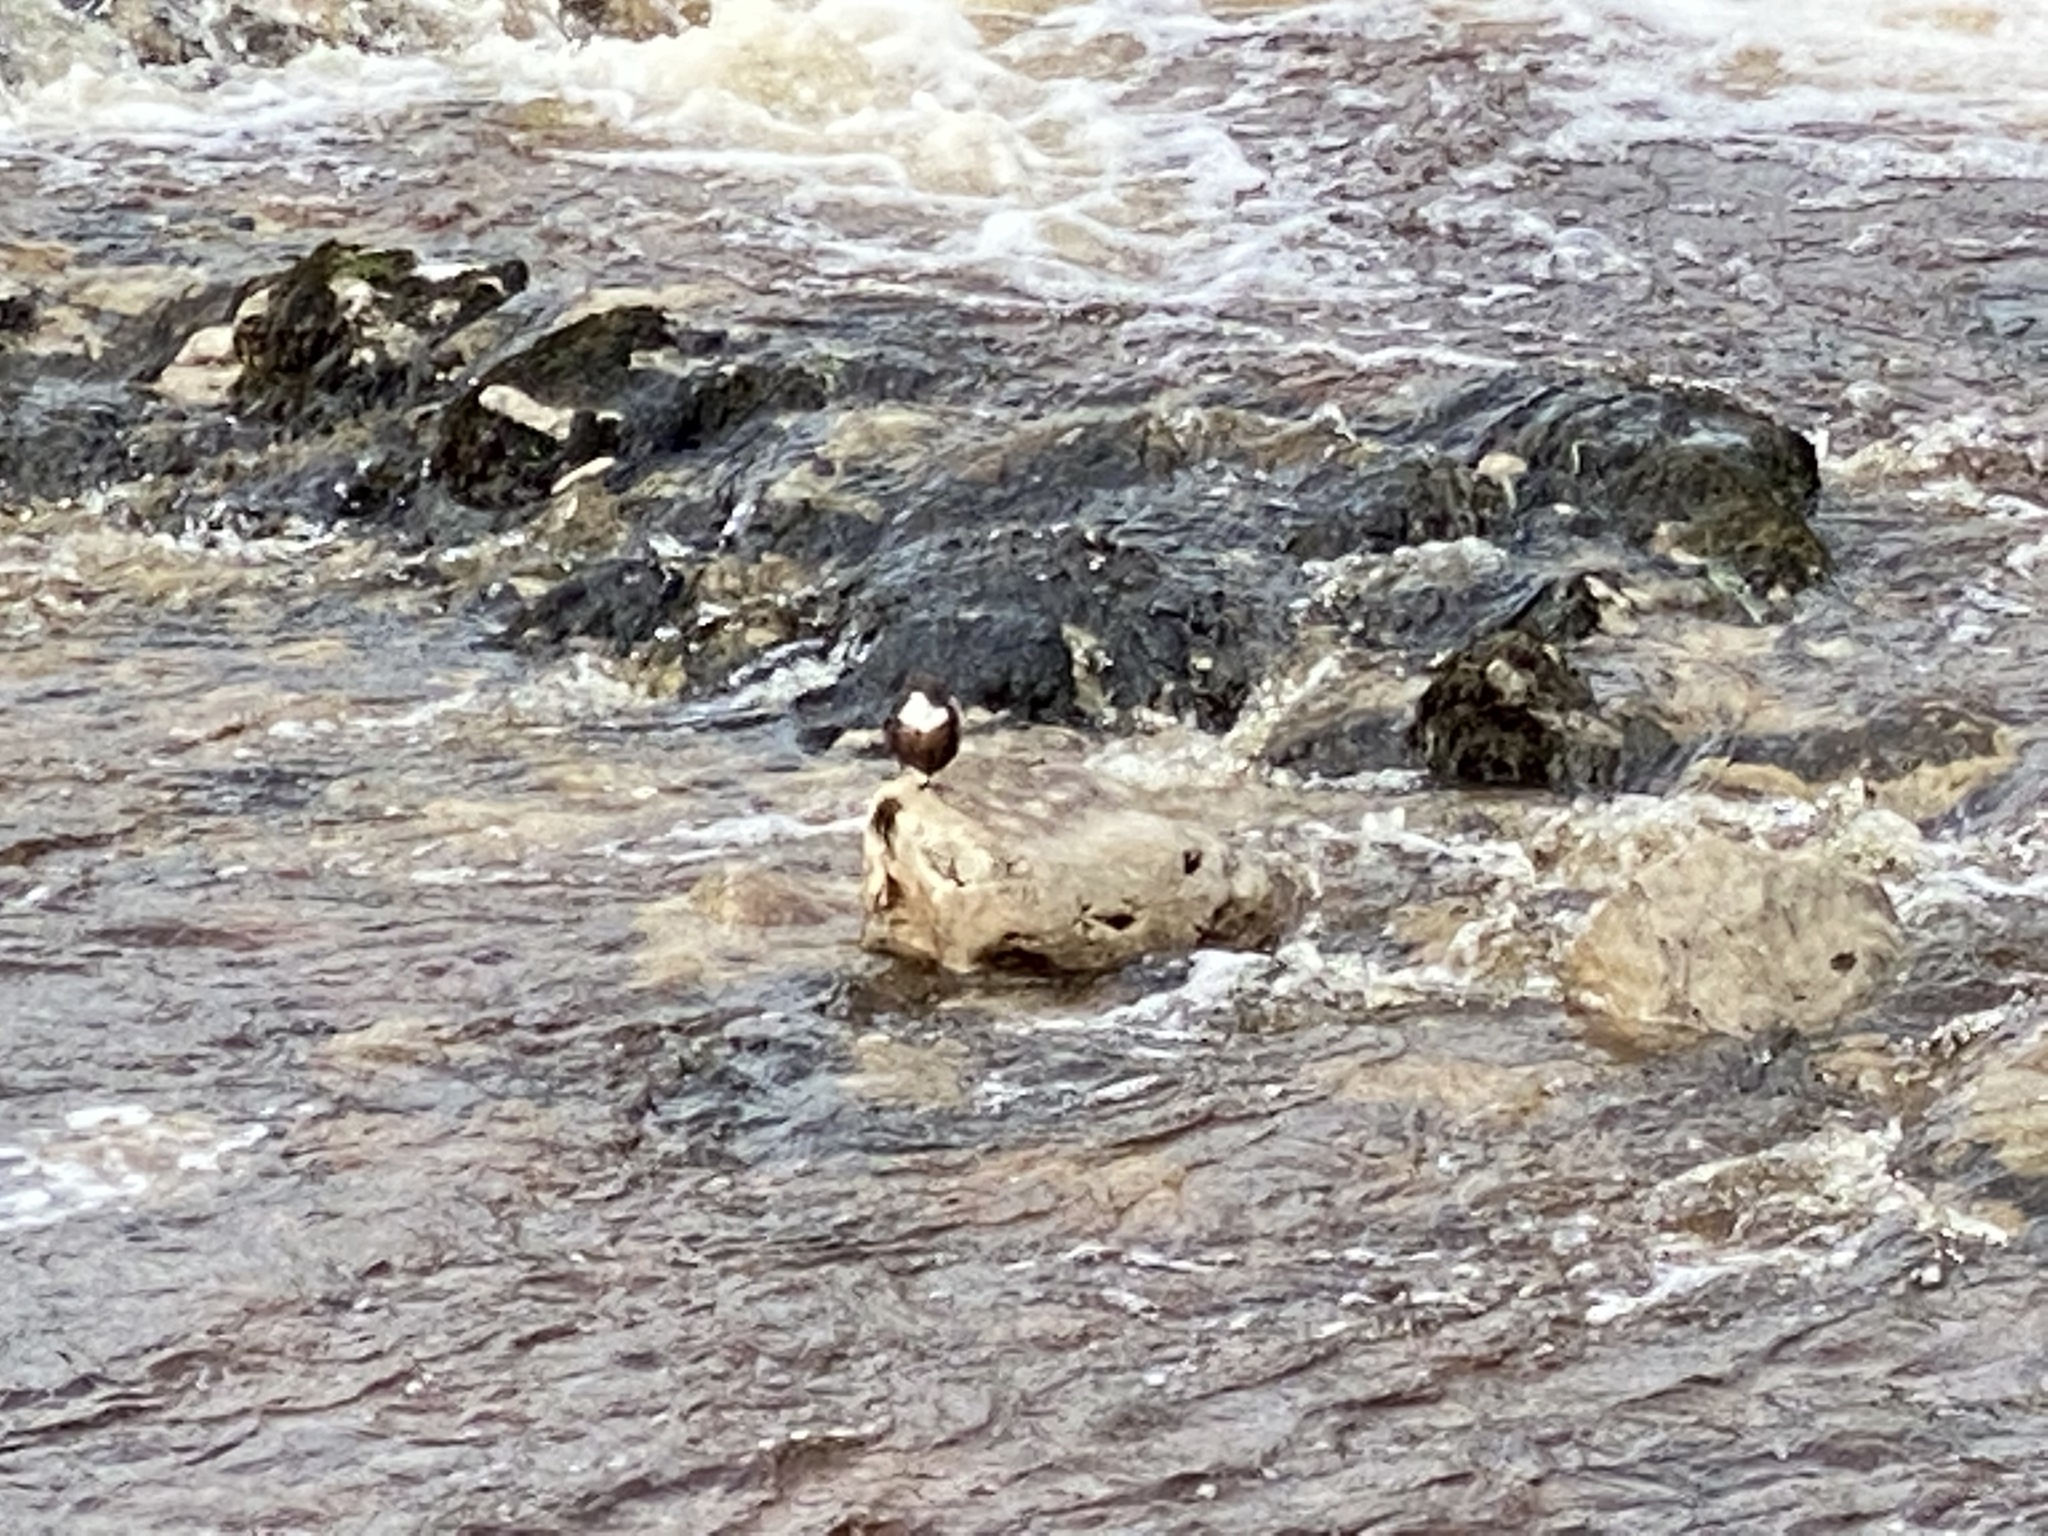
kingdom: Animalia
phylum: Chordata
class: Aves
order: Passeriformes
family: Cinclidae
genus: Cinclus
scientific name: Cinclus cinclus
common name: White-throated dipper
